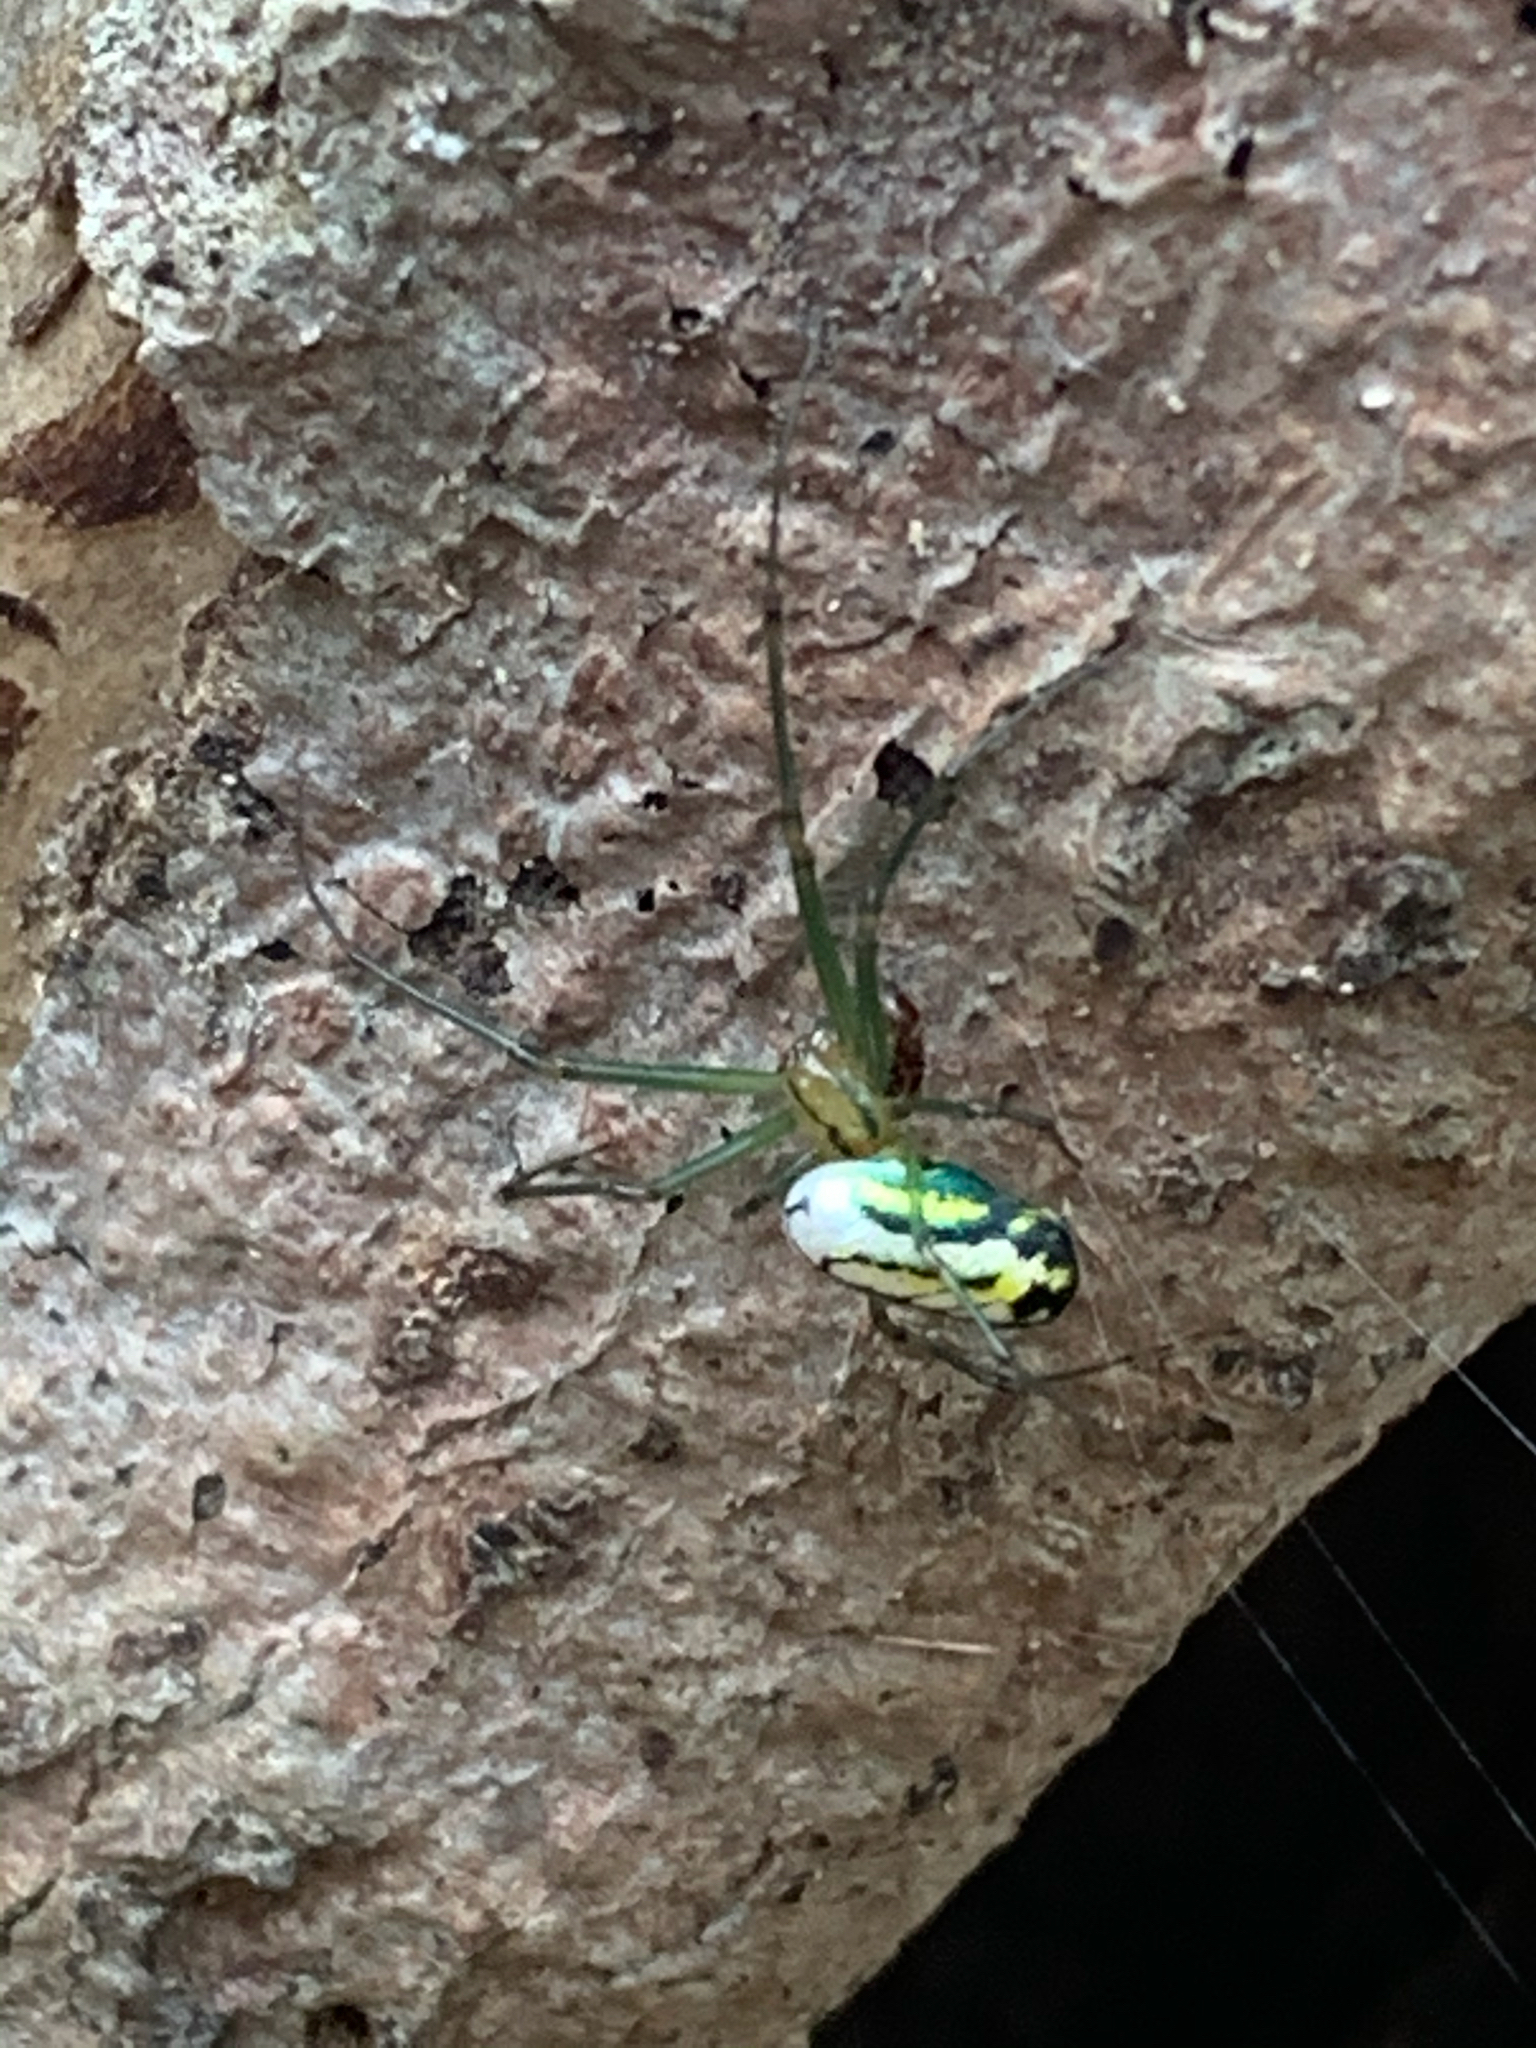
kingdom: Animalia
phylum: Arthropoda
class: Arachnida
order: Araneae
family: Tetragnathidae
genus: Leucauge
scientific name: Leucauge venusta
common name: Longjawed orb weavers
